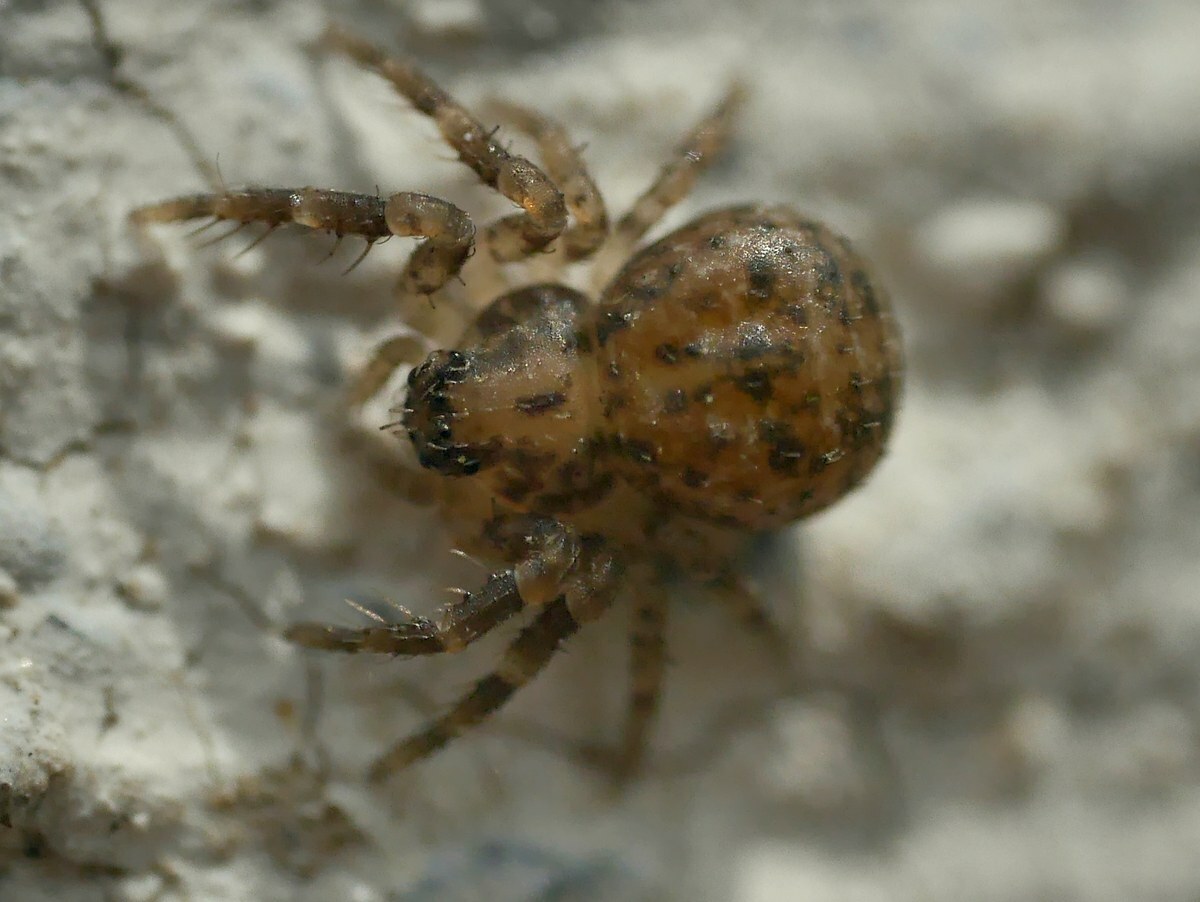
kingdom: Animalia
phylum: Arthropoda
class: Arachnida
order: Araneae
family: Thomisidae
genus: Ozyptila
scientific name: Ozyptila praticola
